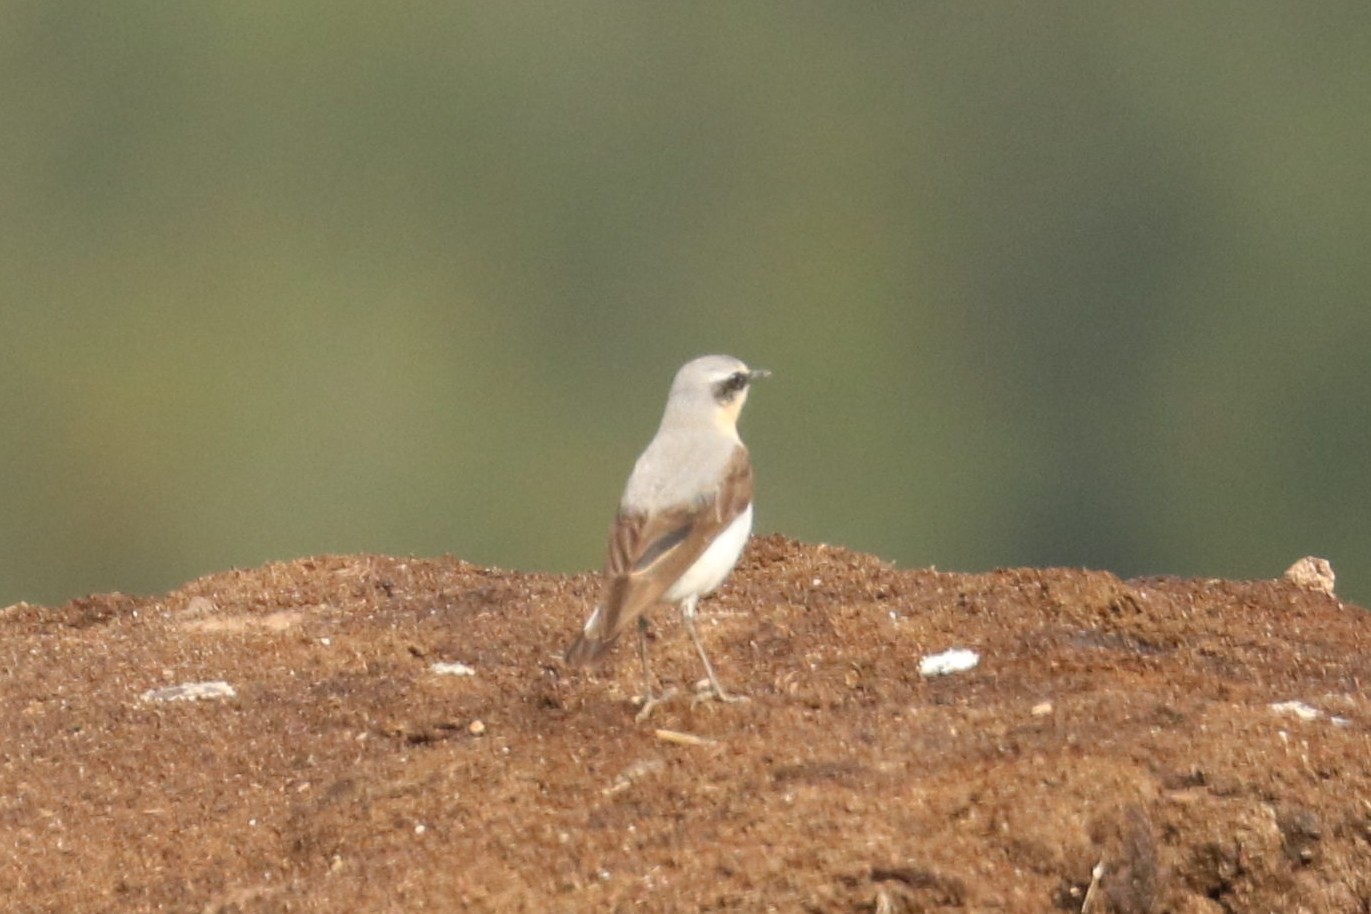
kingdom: Animalia
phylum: Chordata
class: Aves
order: Passeriformes
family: Muscicapidae
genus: Oenanthe
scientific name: Oenanthe oenanthe
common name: Northern wheatear
